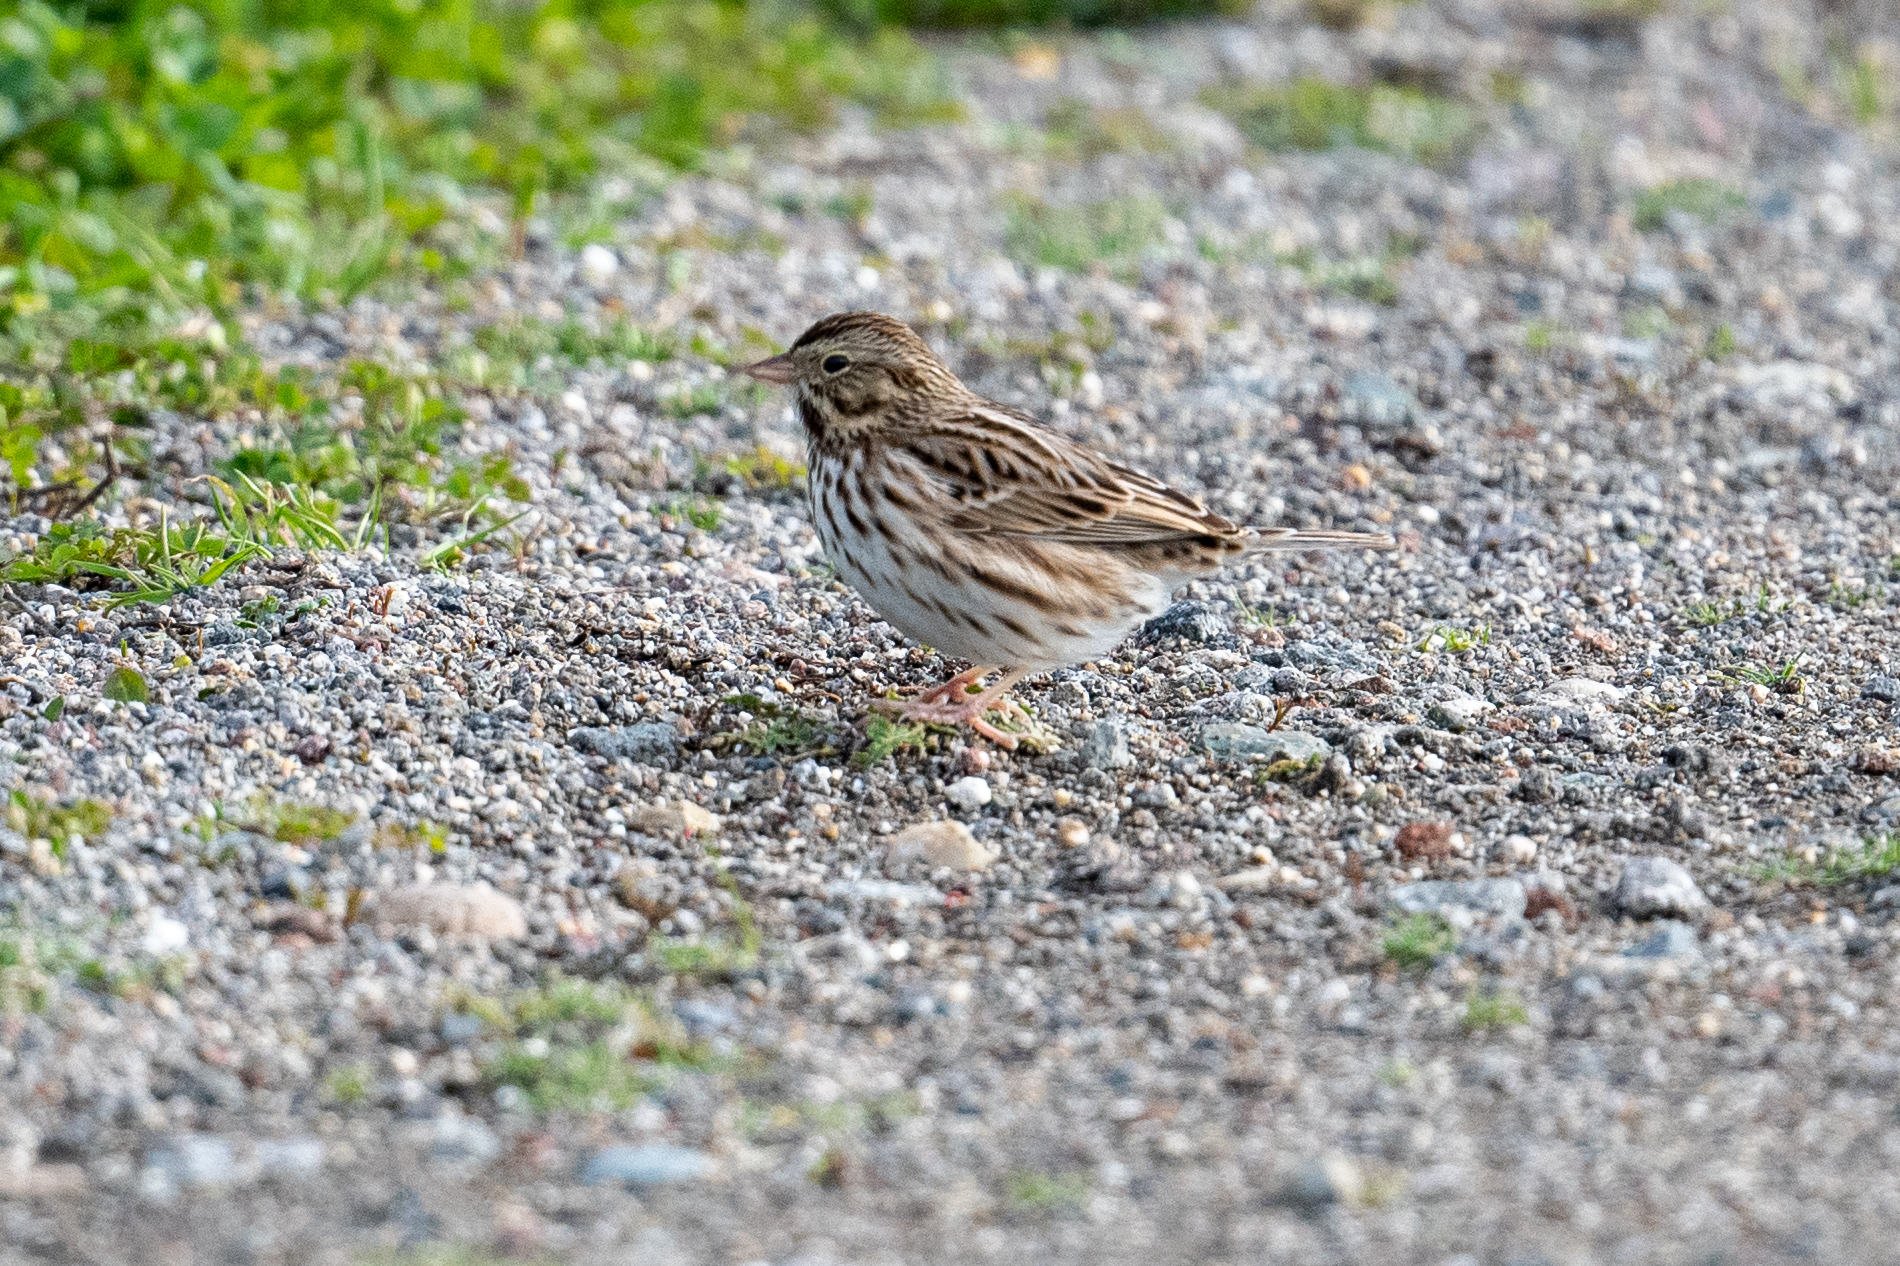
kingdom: Animalia
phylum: Chordata
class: Aves
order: Passeriformes
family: Passerellidae
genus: Passerculus
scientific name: Passerculus sandwichensis
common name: Savannah sparrow
